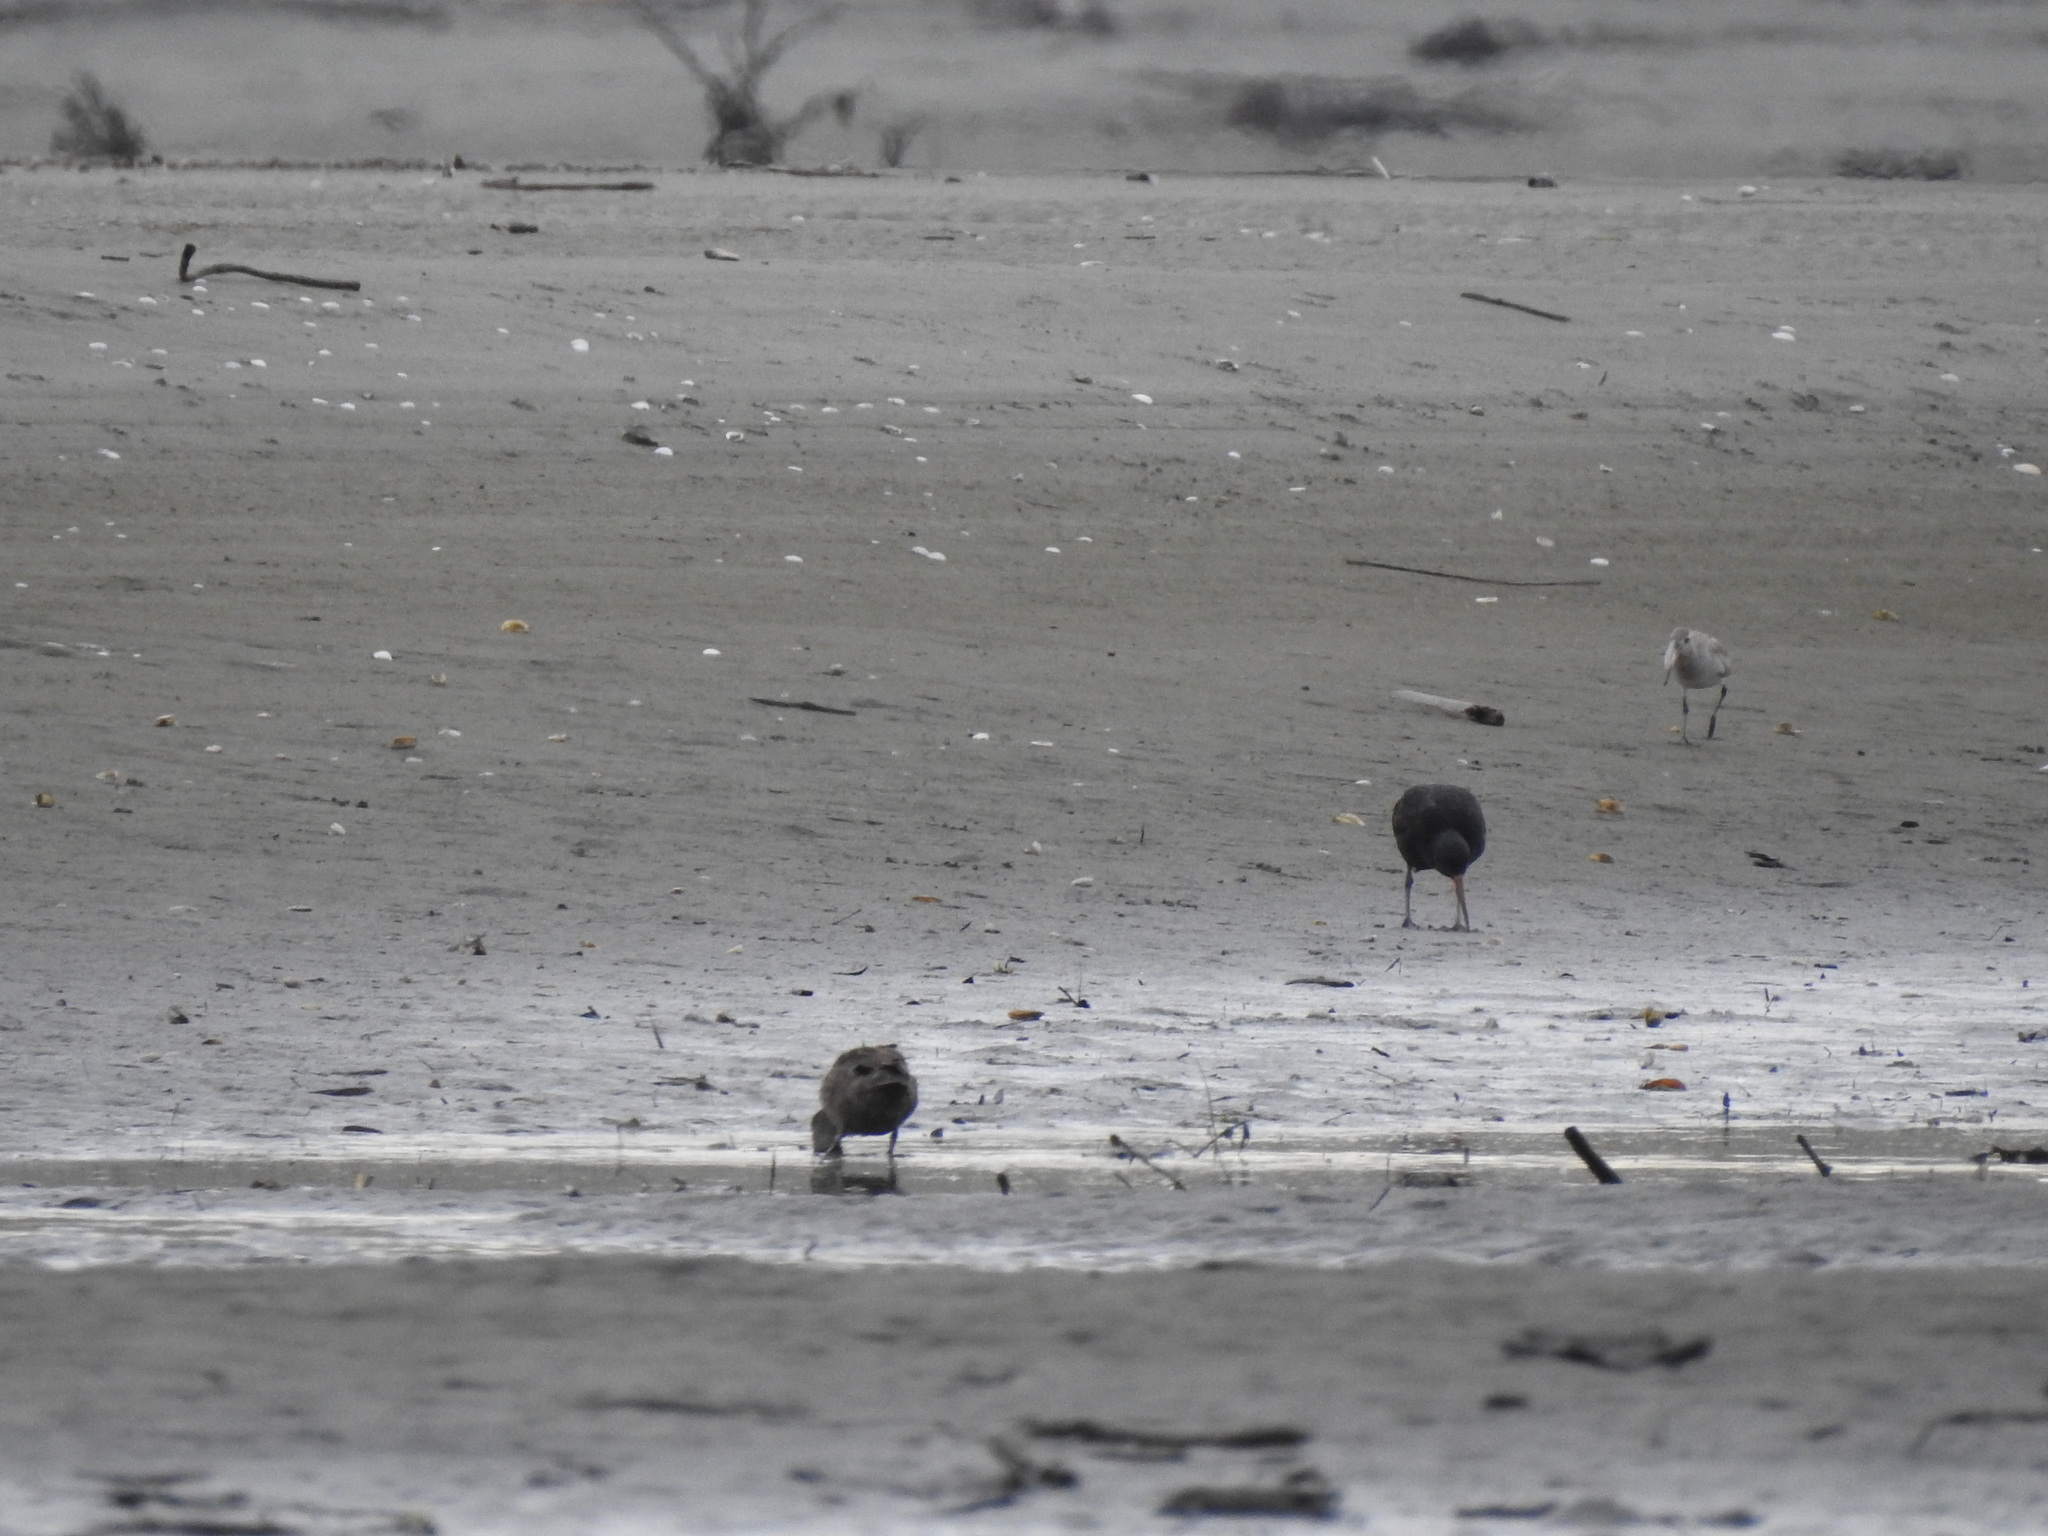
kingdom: Animalia
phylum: Chordata
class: Aves
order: Charadriiformes
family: Haematopodidae
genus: Haematopus
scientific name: Haematopus unicolor
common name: Variable oystercatcher
